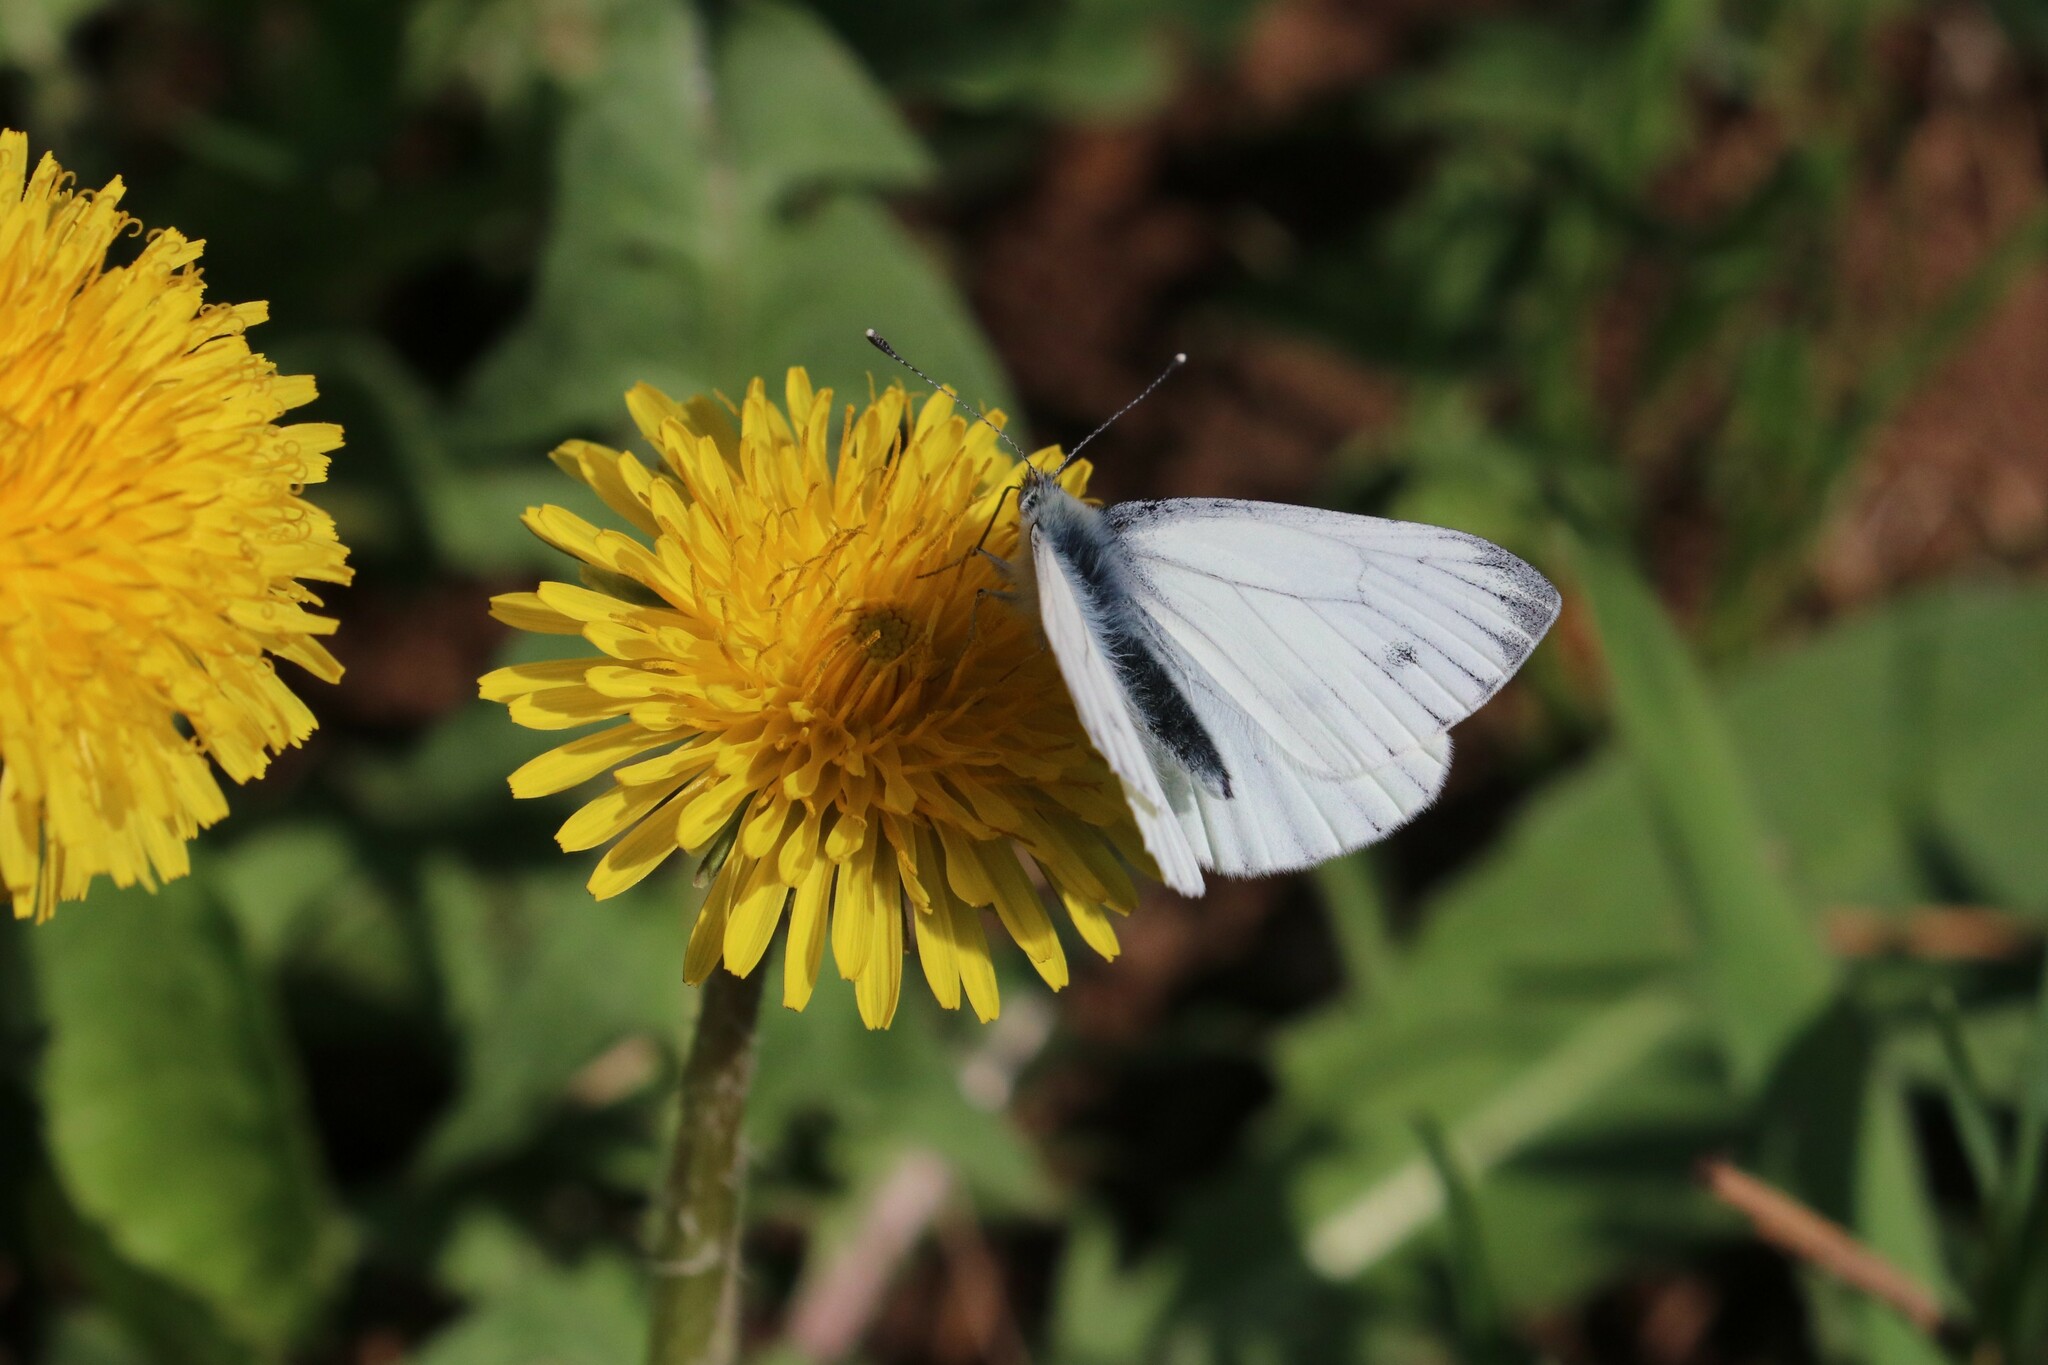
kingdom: Animalia
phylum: Arthropoda
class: Insecta
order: Lepidoptera
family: Pieridae
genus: Pieris
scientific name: Pieris napi
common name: Green-veined white
